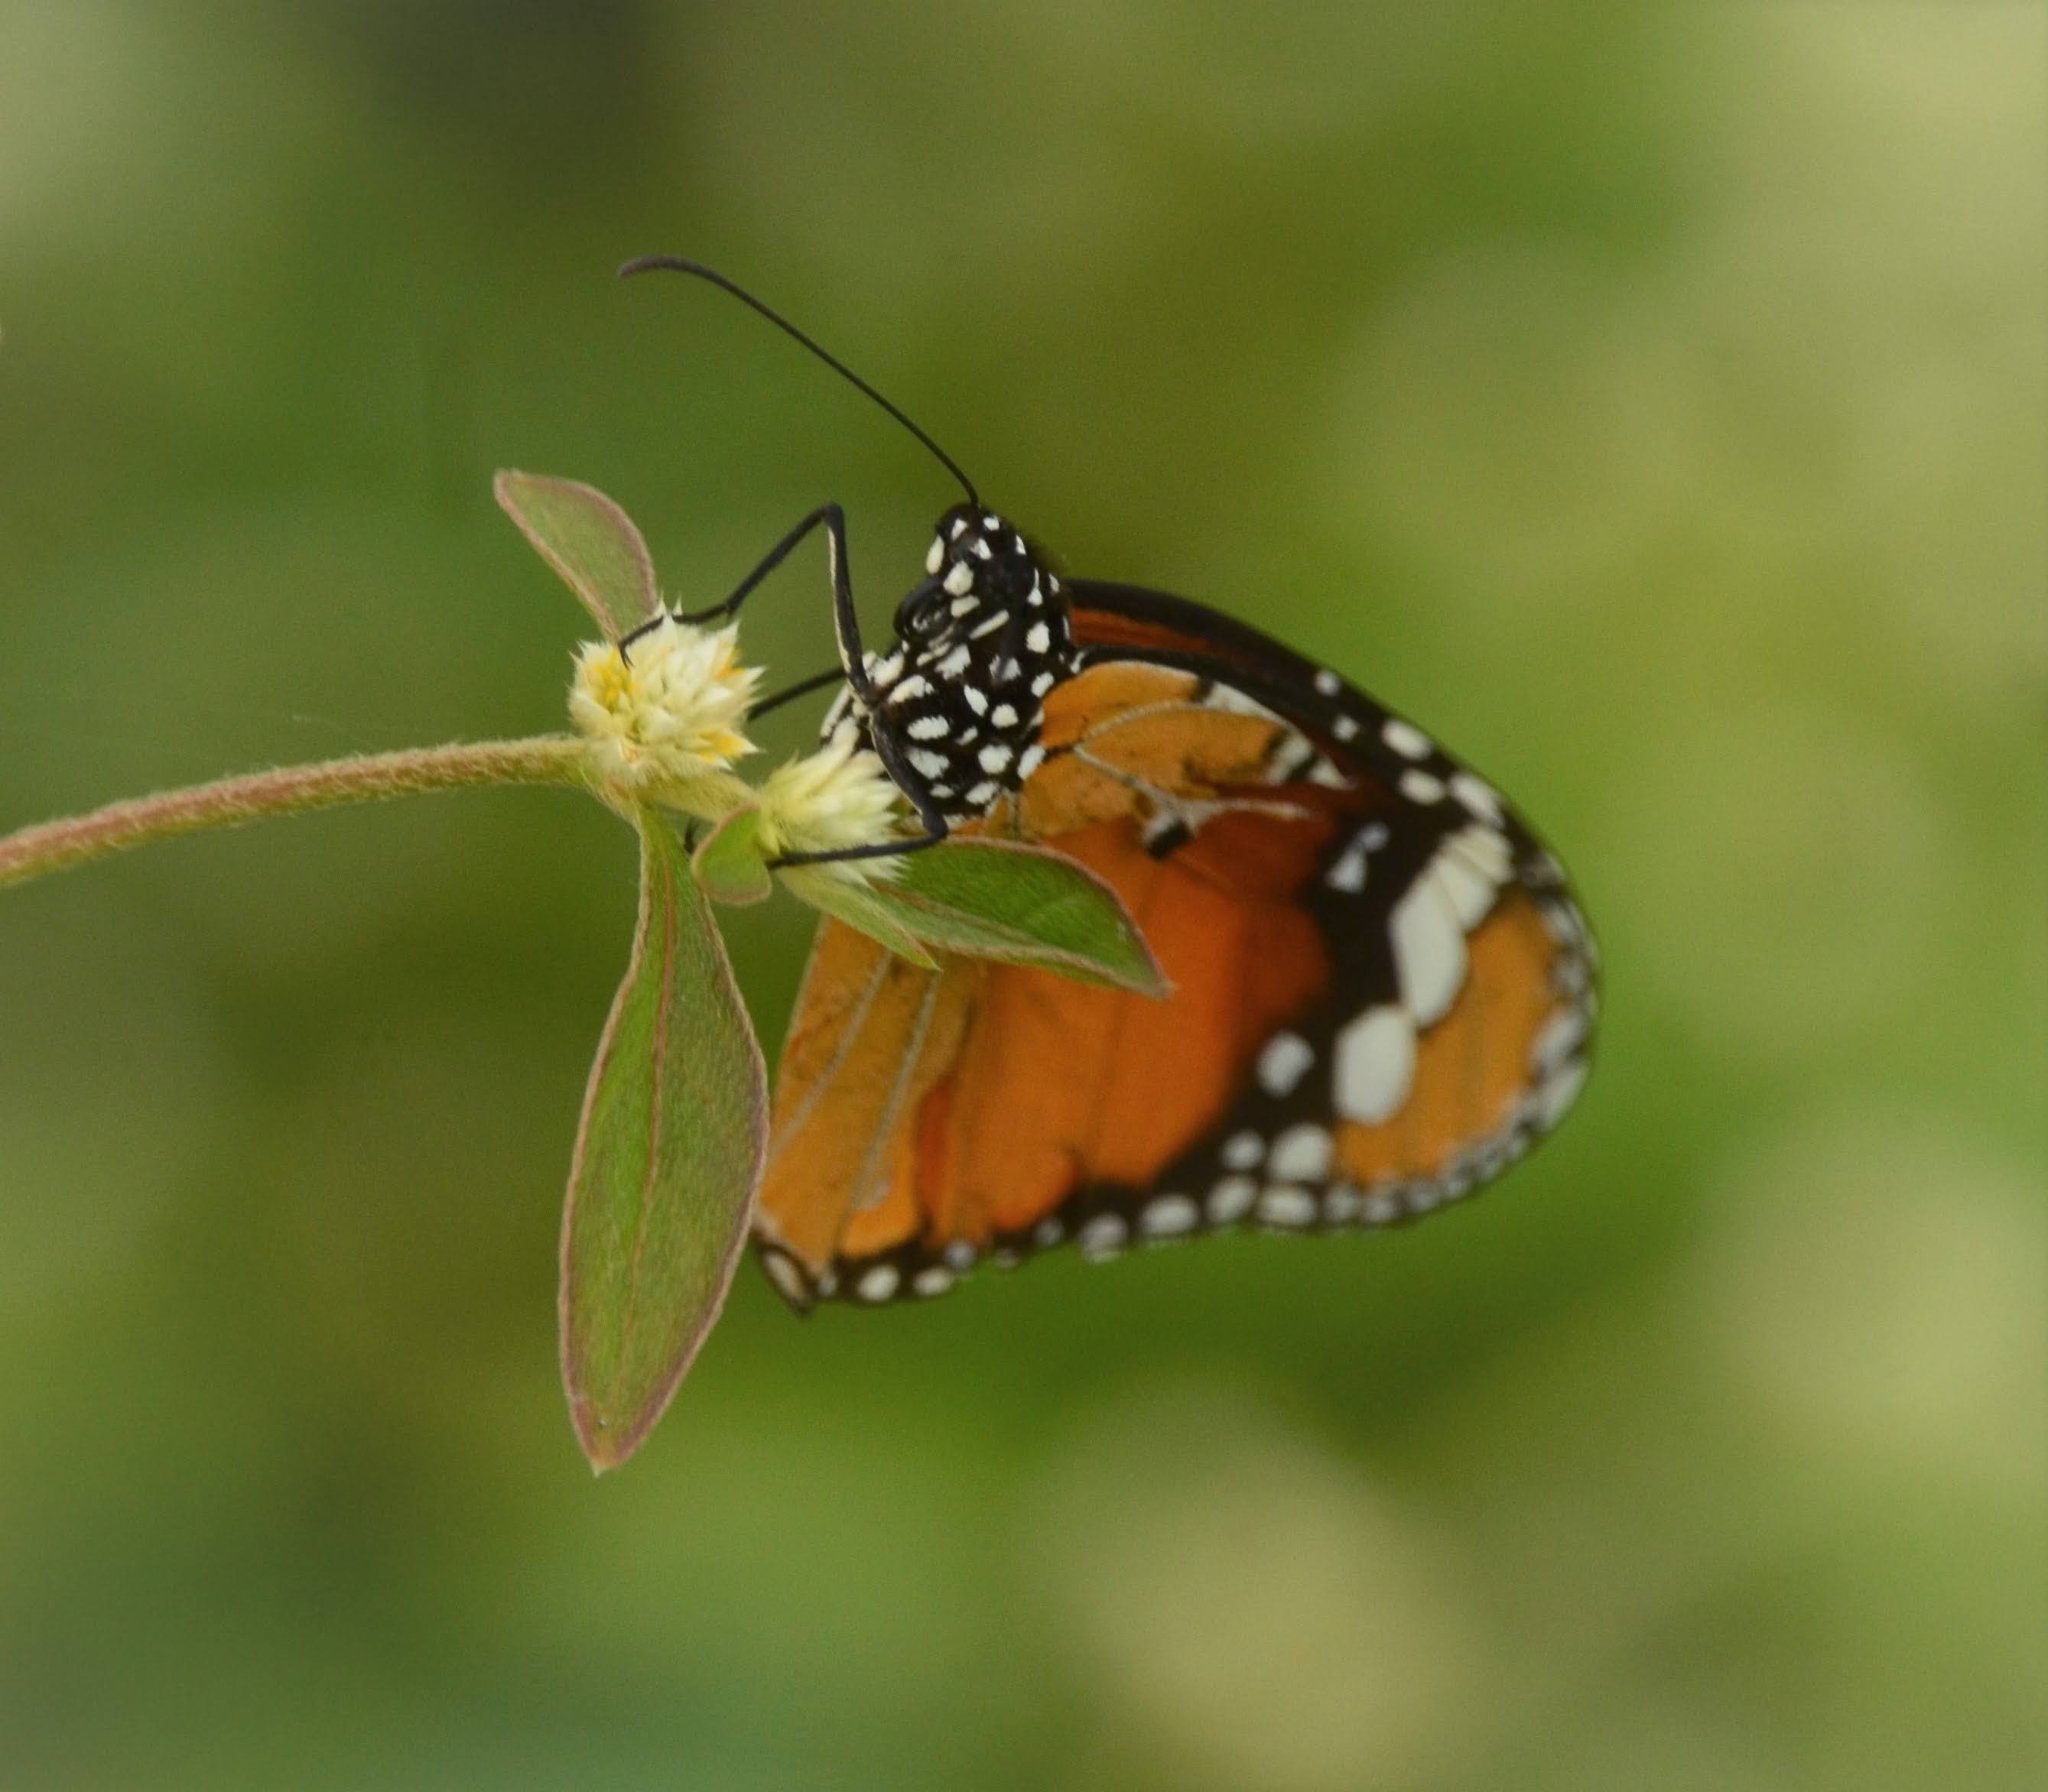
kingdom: Animalia
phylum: Arthropoda
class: Insecta
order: Lepidoptera
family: Nymphalidae
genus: Danaus
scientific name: Danaus chrysippus
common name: Plain tiger
